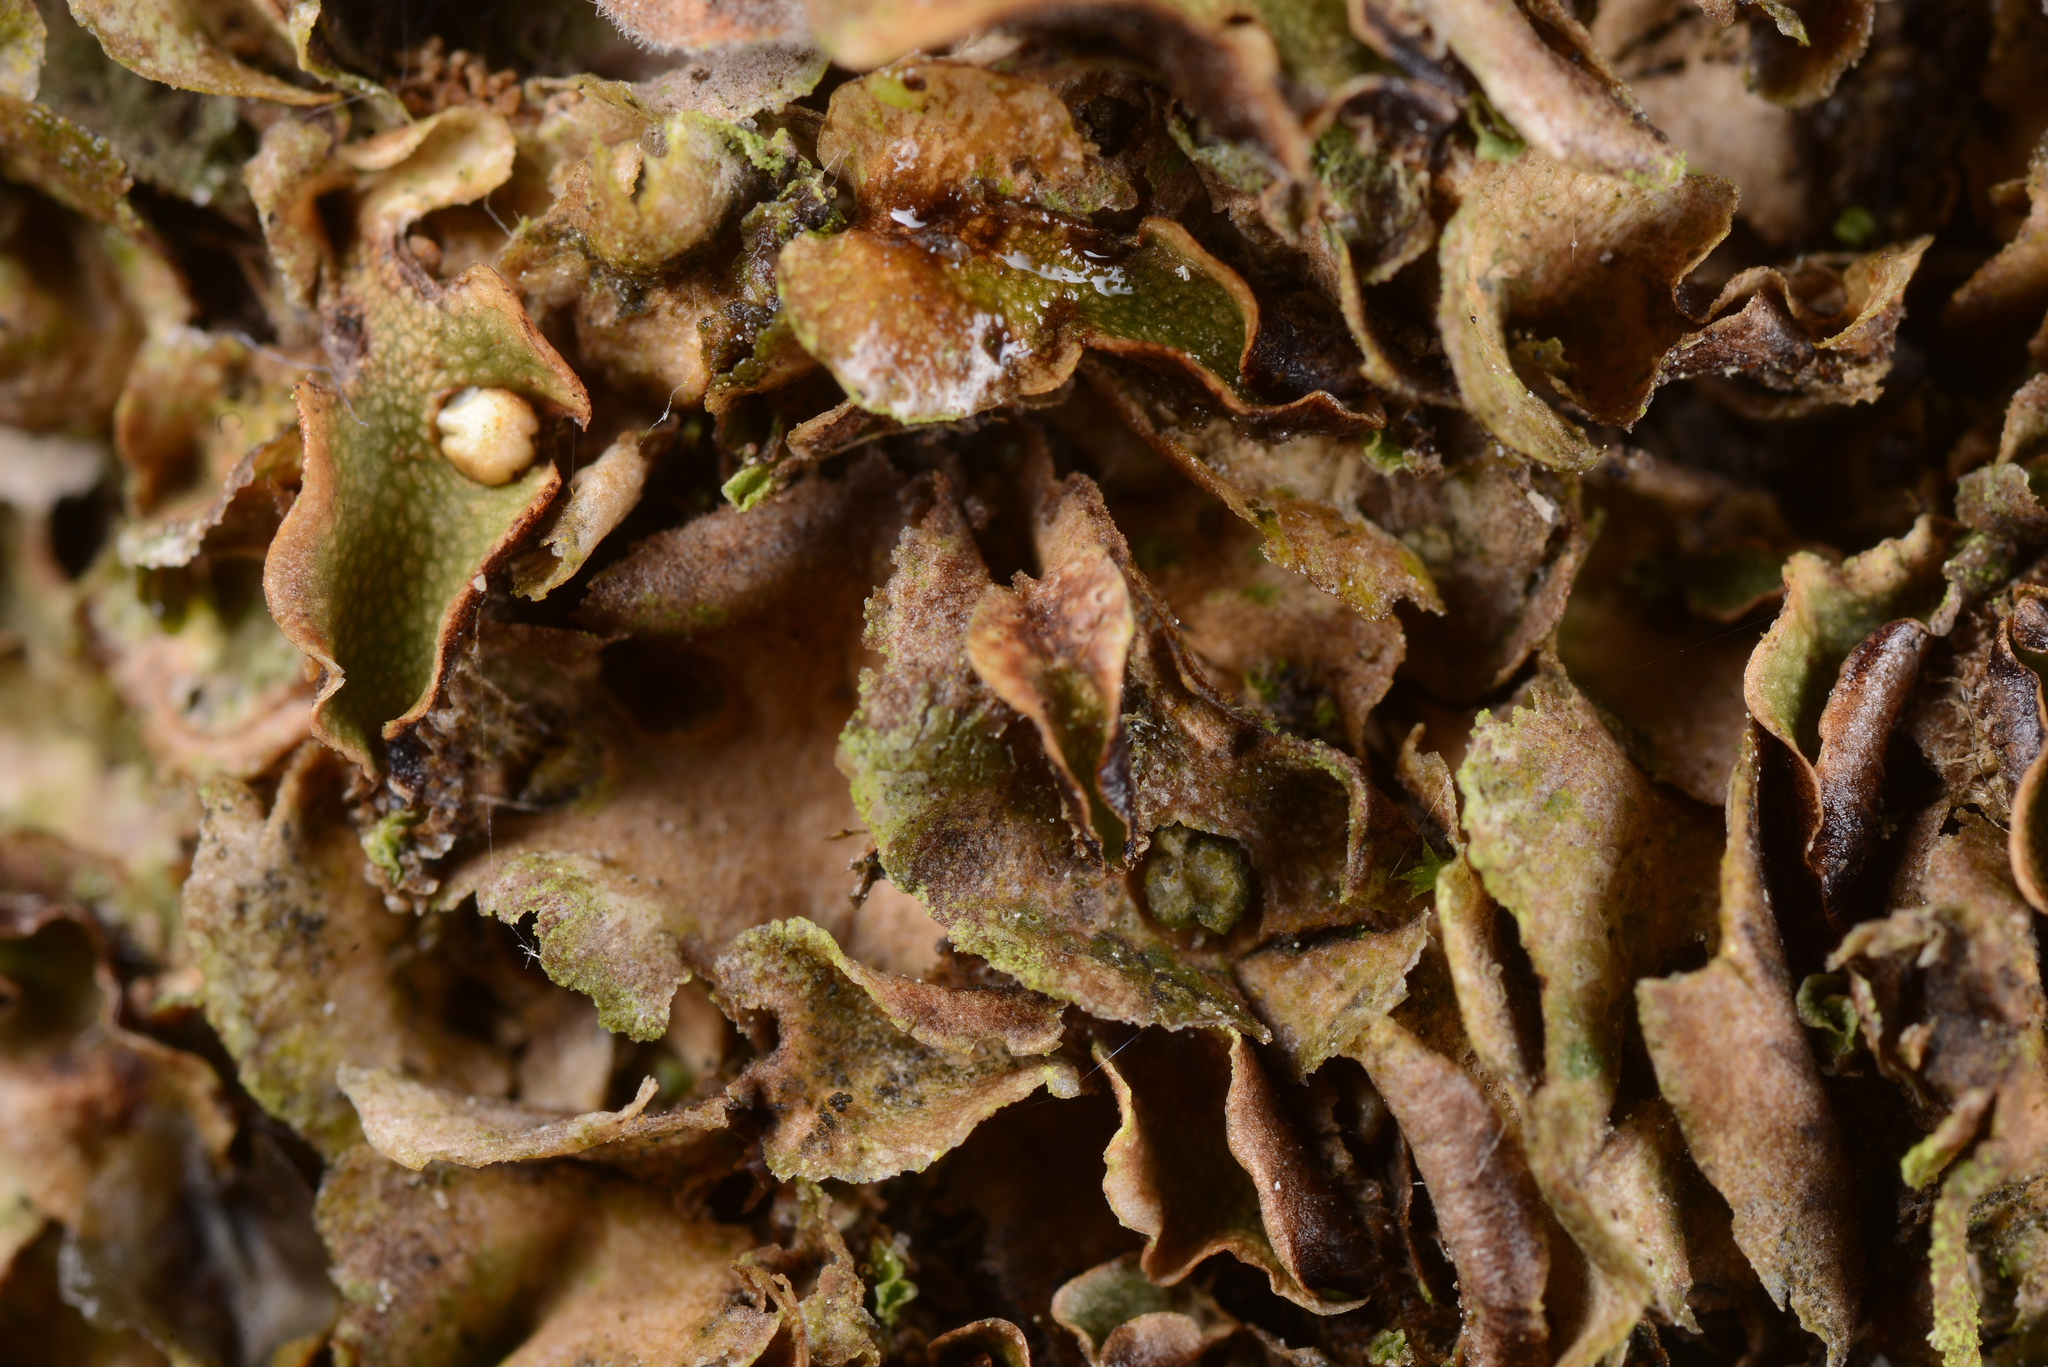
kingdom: Plantae
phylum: Marchantiophyta
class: Marchantiopsida
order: Lunulariales
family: Lunulariaceae
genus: Lunularia
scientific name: Lunularia cruciata
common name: Crescent-cup liverwort
